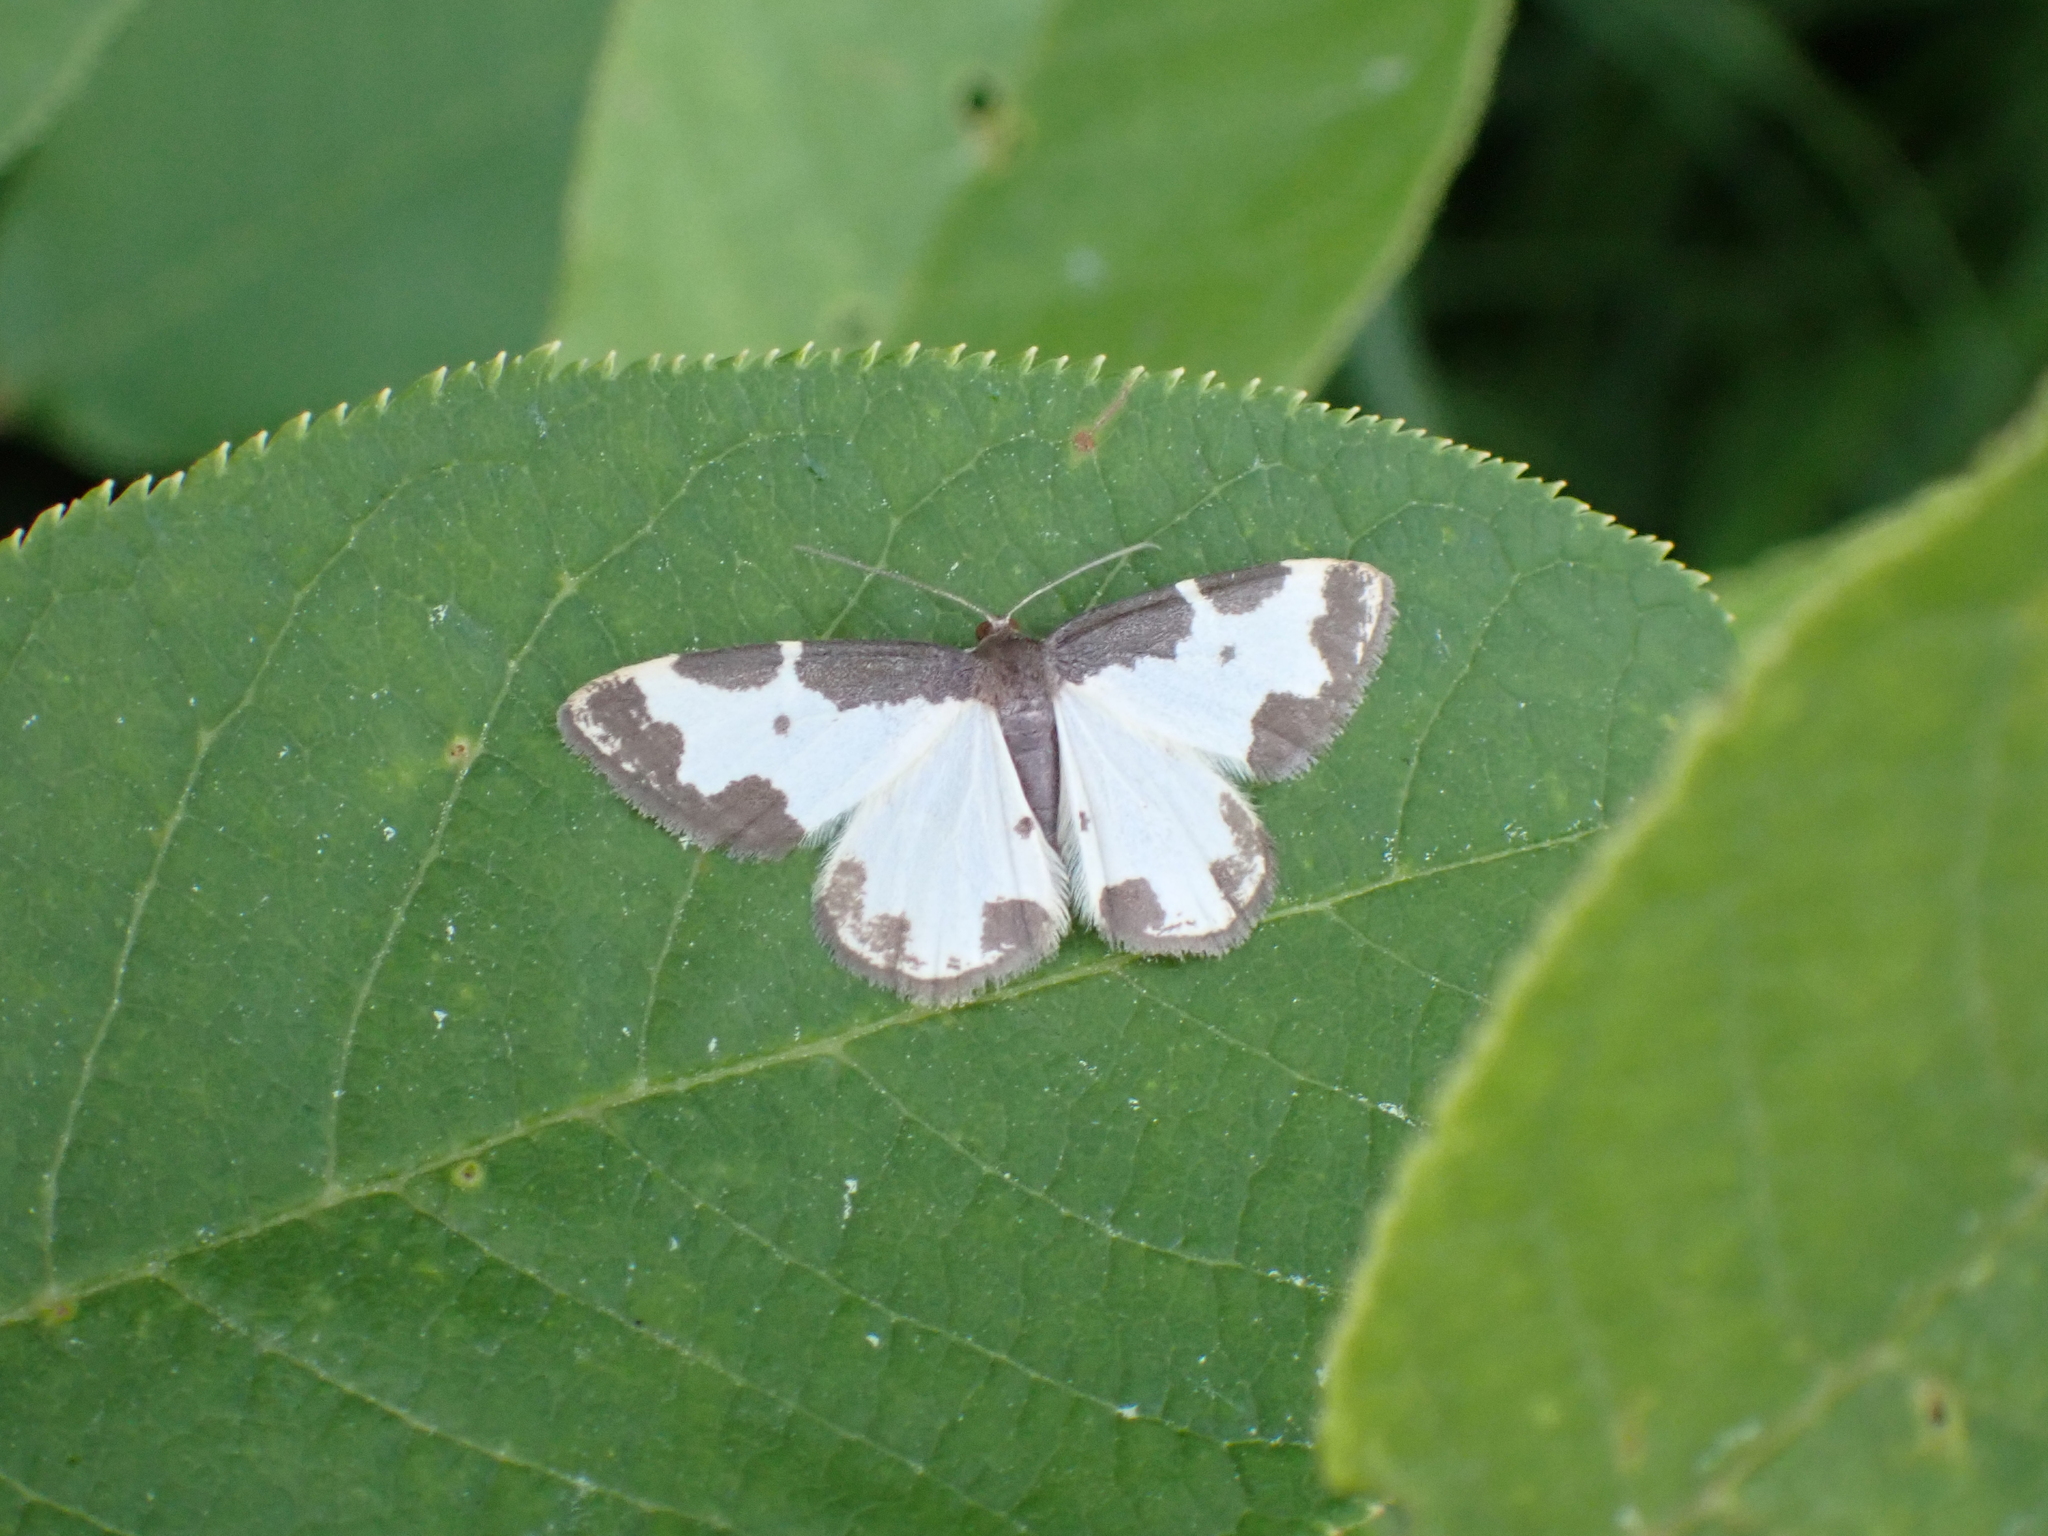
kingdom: Animalia
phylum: Arthropoda
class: Insecta
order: Lepidoptera
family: Geometridae
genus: Lomaspilis
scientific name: Lomaspilis marginata
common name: Clouded border
